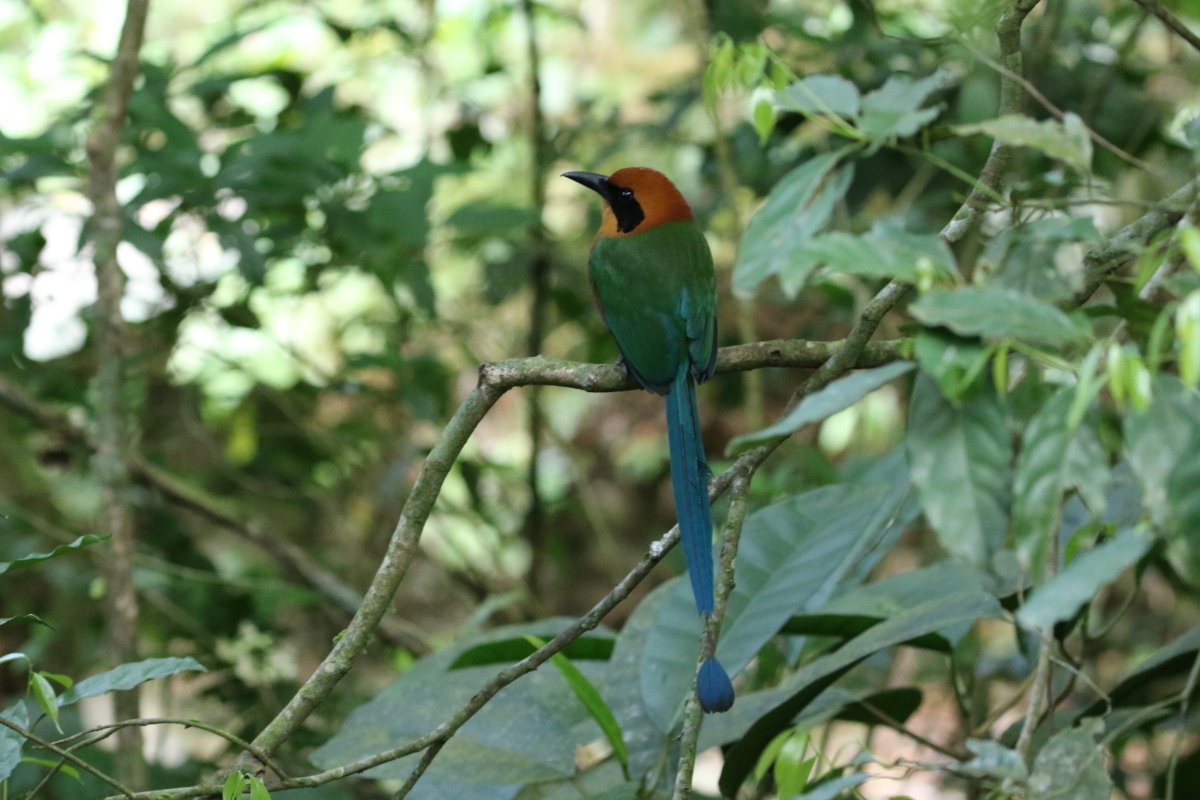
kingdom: Animalia
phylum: Chordata
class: Aves
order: Coraciiformes
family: Momotidae
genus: Baryphthengus
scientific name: Baryphthengus martii
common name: Rufous motmot
